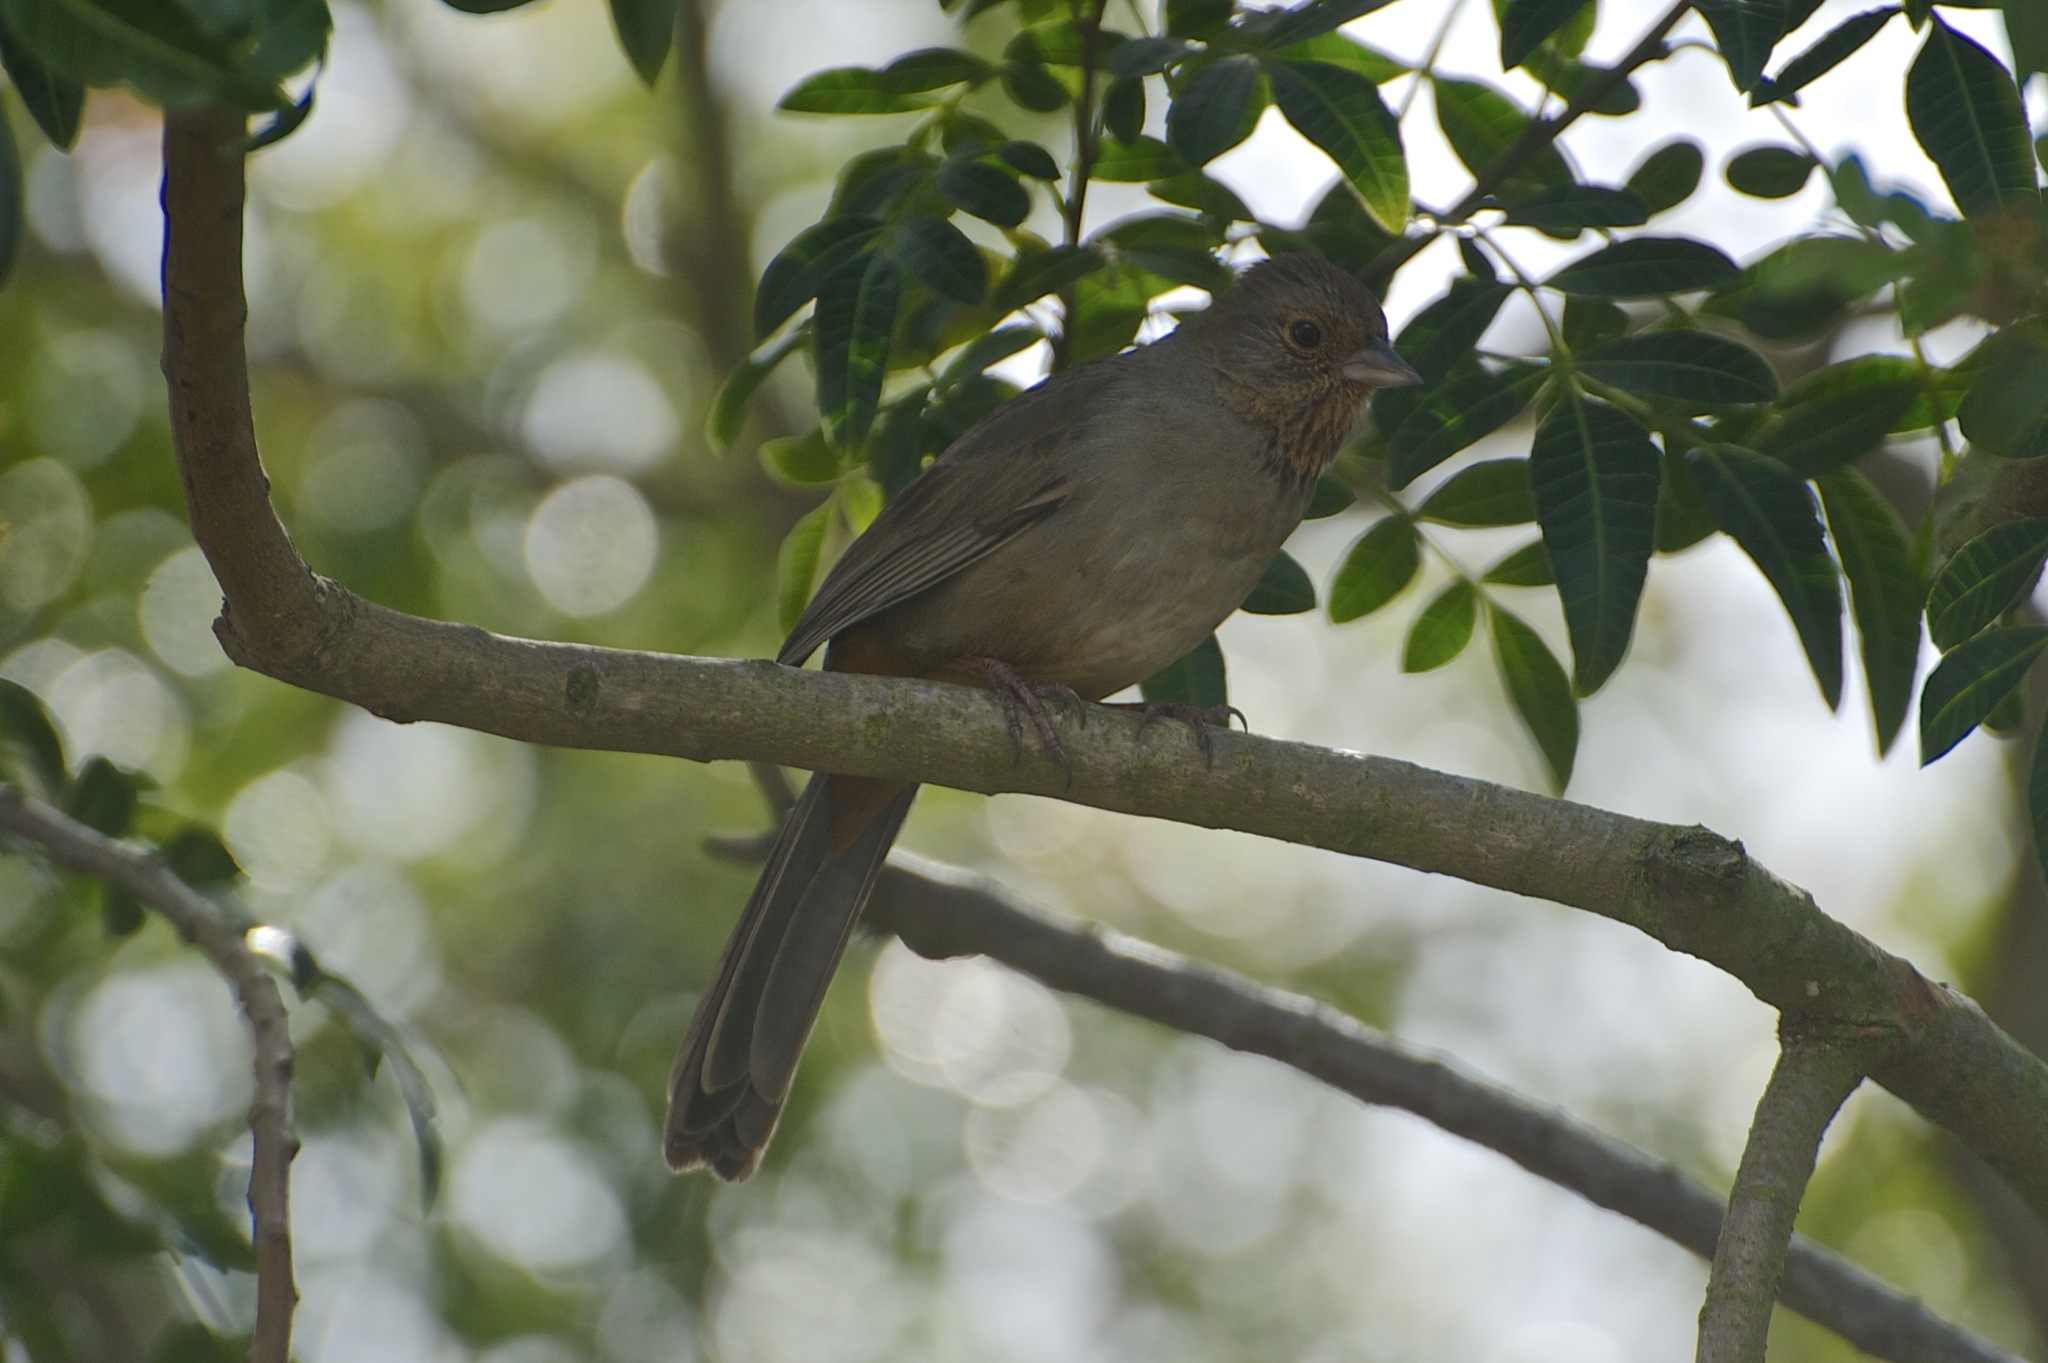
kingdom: Animalia
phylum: Chordata
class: Aves
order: Passeriformes
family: Passerellidae
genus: Melozone
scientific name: Melozone crissalis
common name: California towhee
